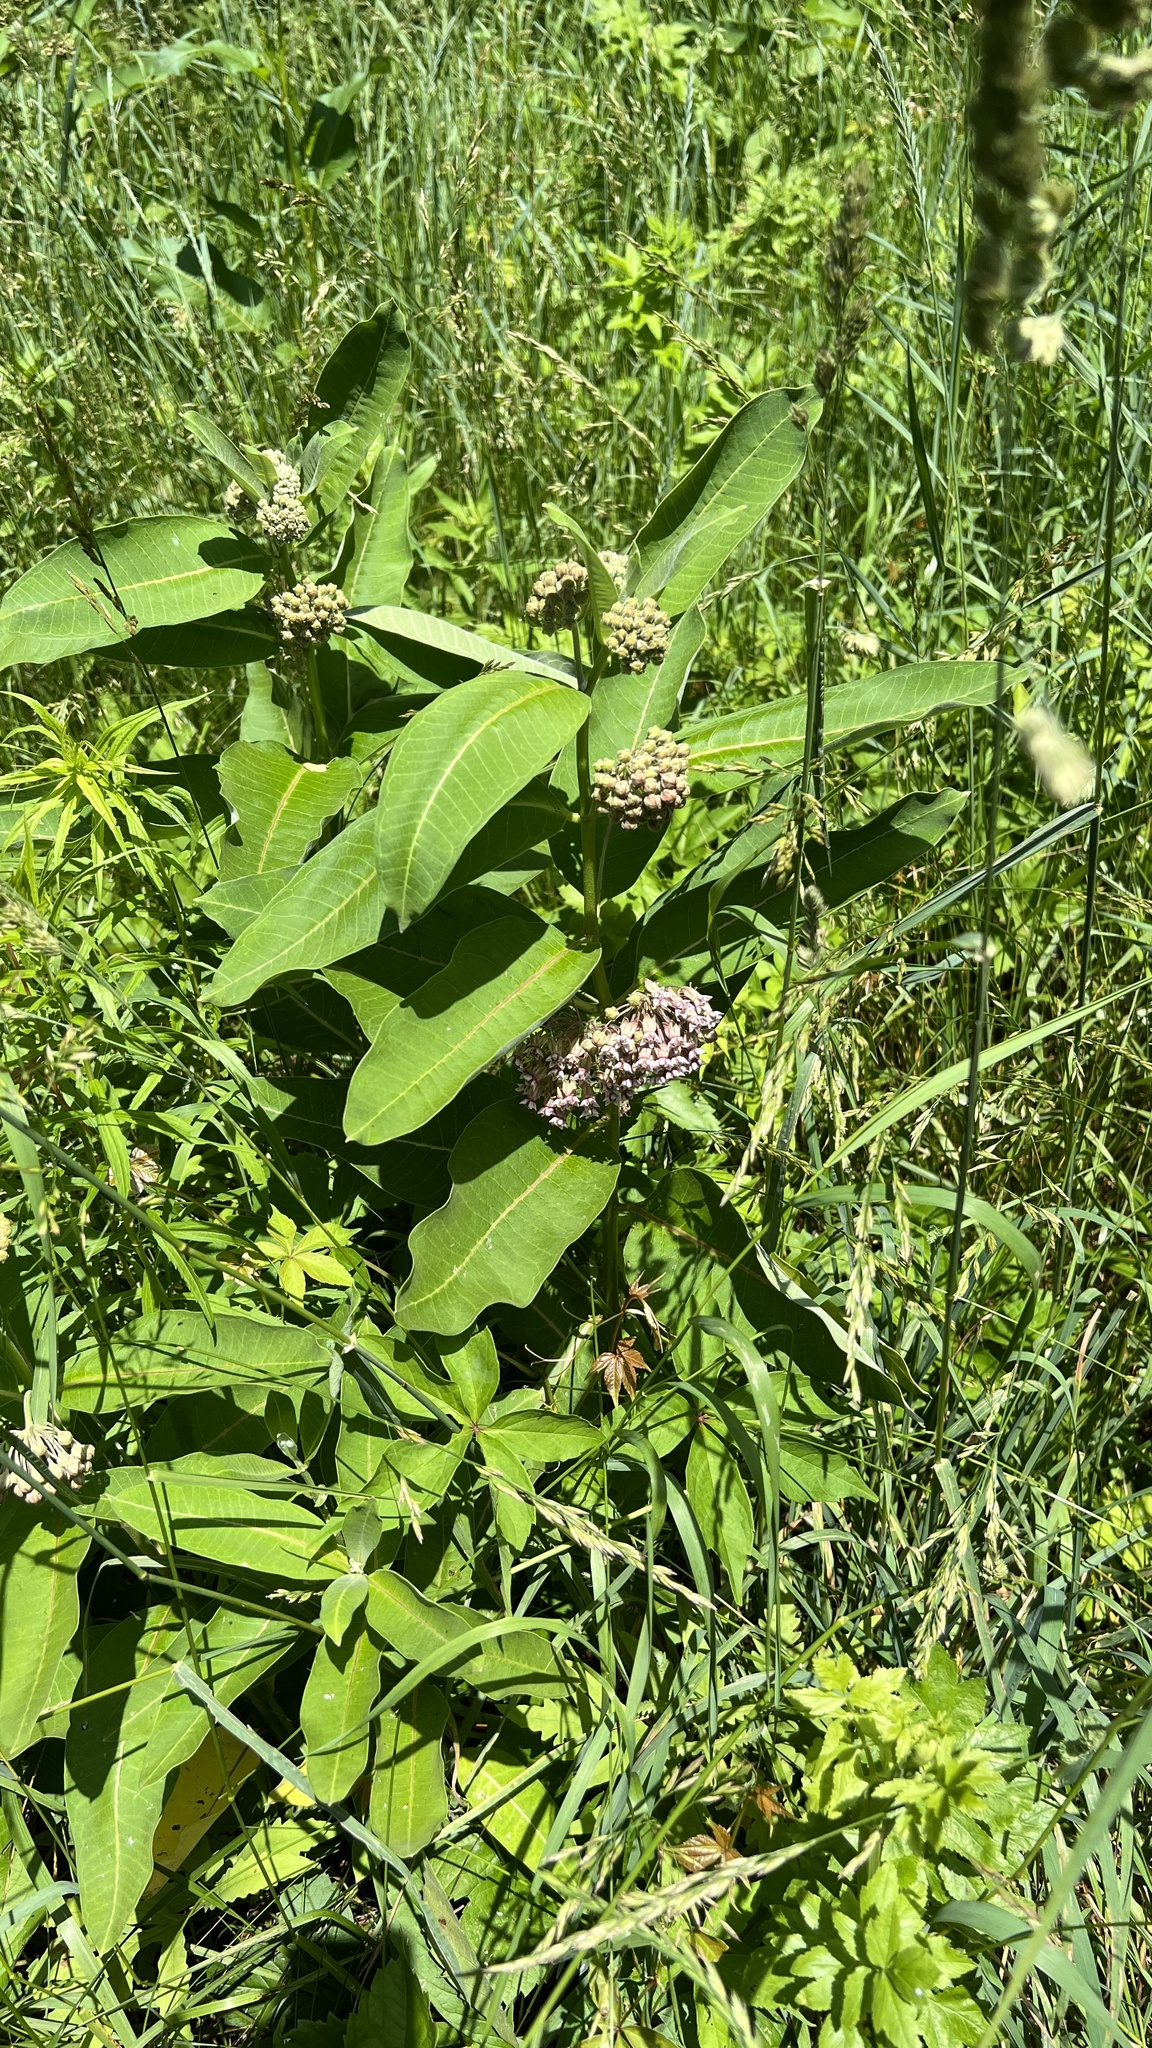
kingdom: Plantae
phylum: Tracheophyta
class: Magnoliopsida
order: Gentianales
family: Apocynaceae
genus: Asclepias
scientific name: Asclepias syriaca
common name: Common milkweed
